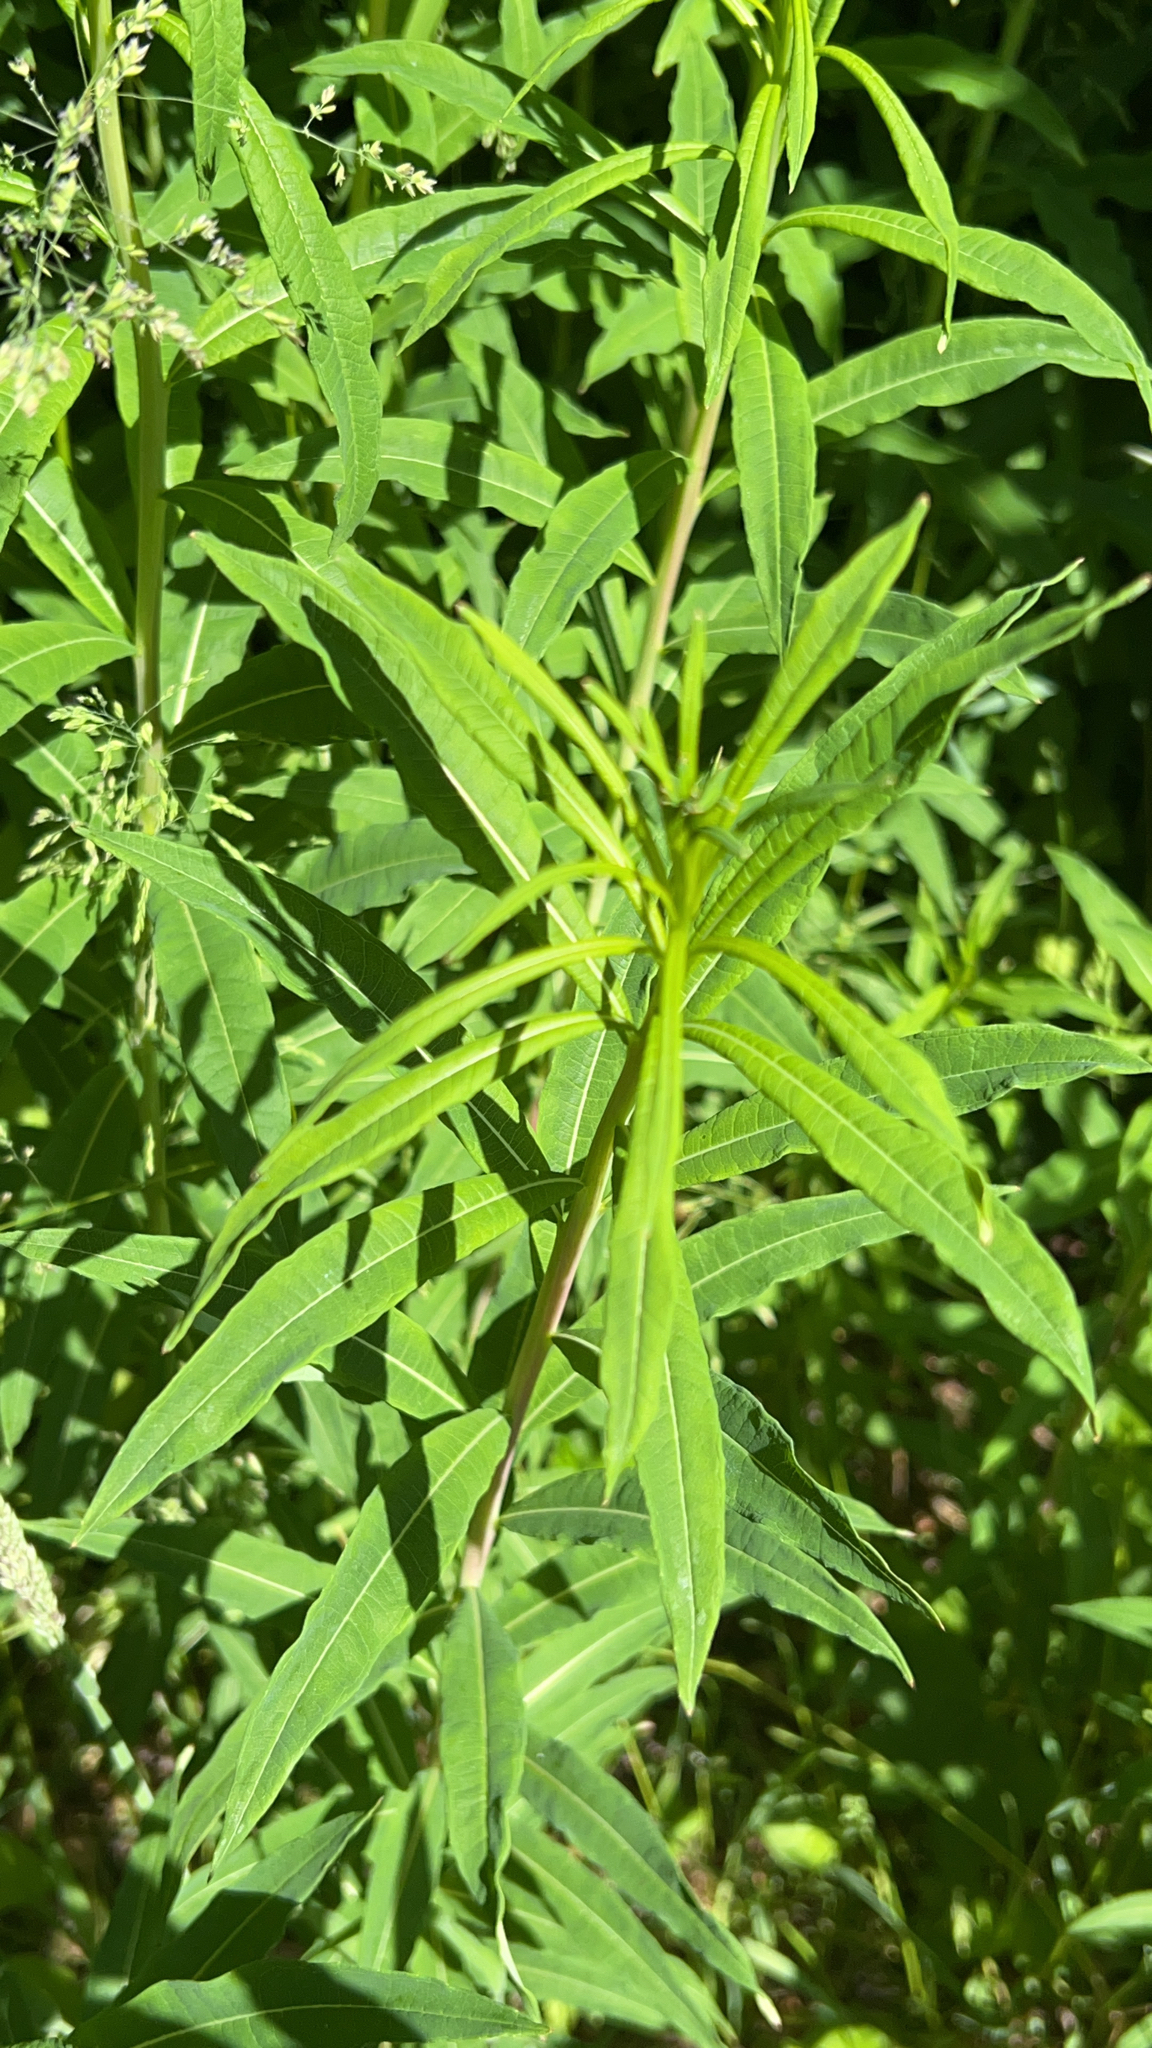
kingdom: Plantae
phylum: Tracheophyta
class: Magnoliopsida
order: Myrtales
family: Onagraceae
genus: Chamaenerion
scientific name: Chamaenerion angustifolium
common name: Fireweed
